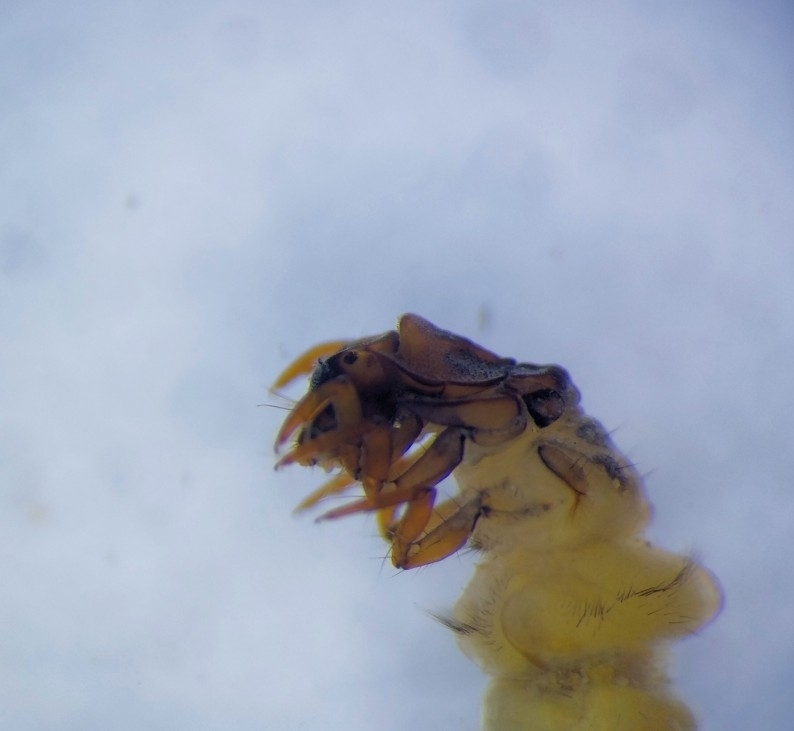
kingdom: Animalia
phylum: Arthropoda
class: Insecta
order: Trichoptera
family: Goeridae
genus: Lithax
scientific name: Lithax niger
